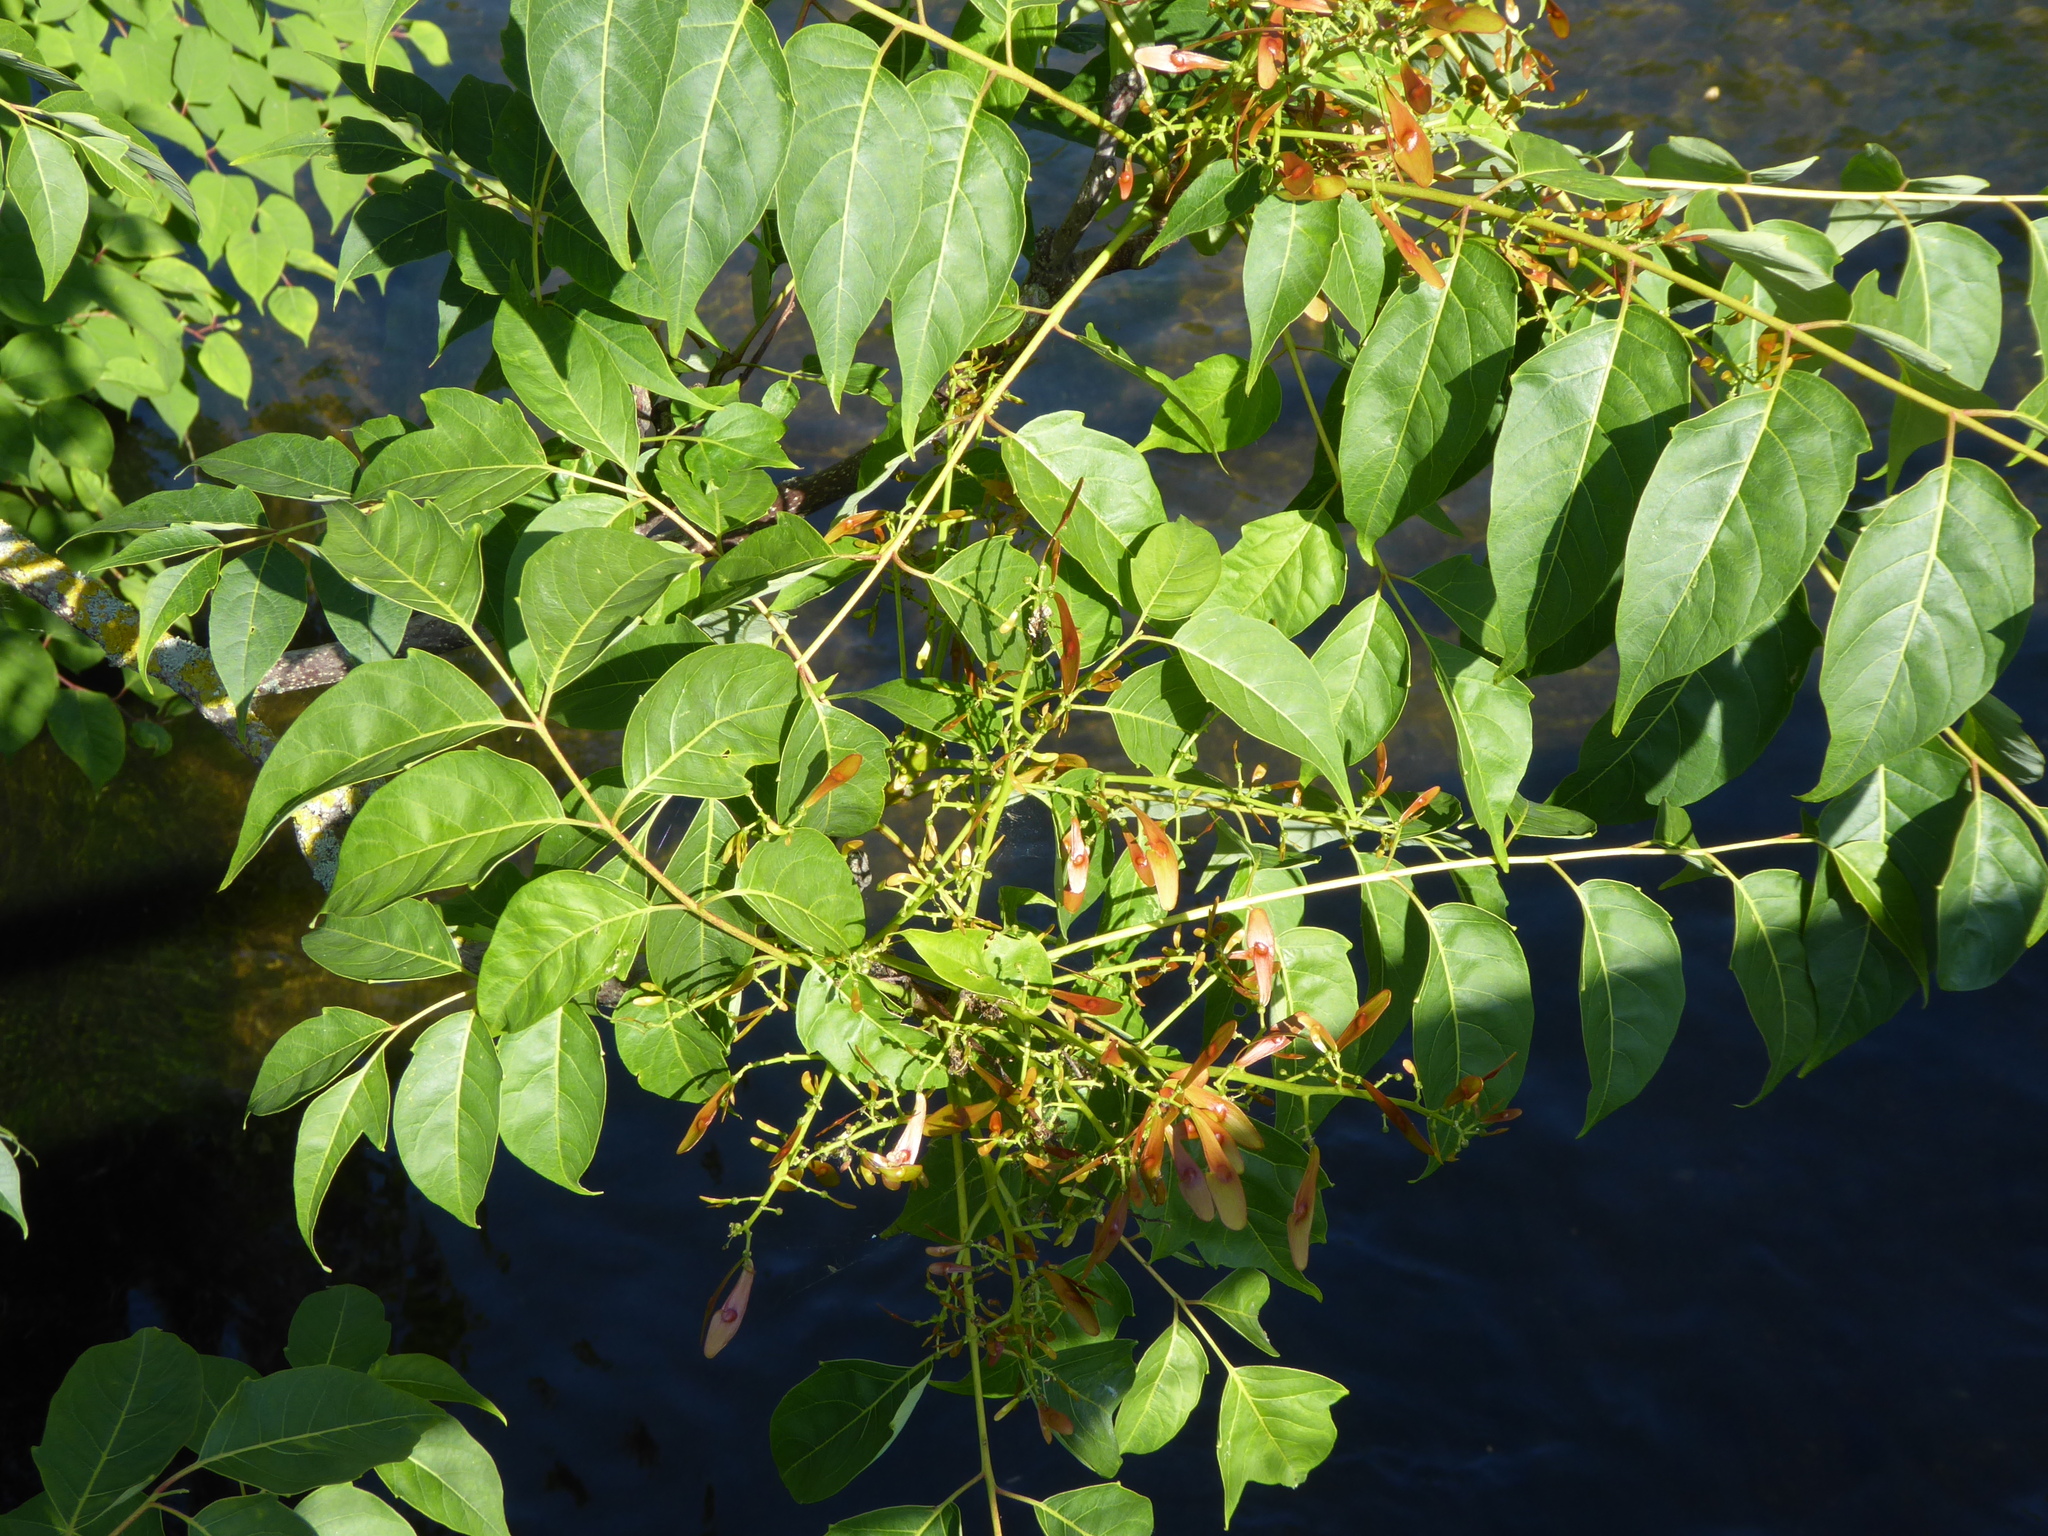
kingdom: Plantae
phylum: Tracheophyta
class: Magnoliopsida
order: Sapindales
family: Simaroubaceae
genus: Ailanthus
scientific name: Ailanthus altissima
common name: Tree-of-heaven
